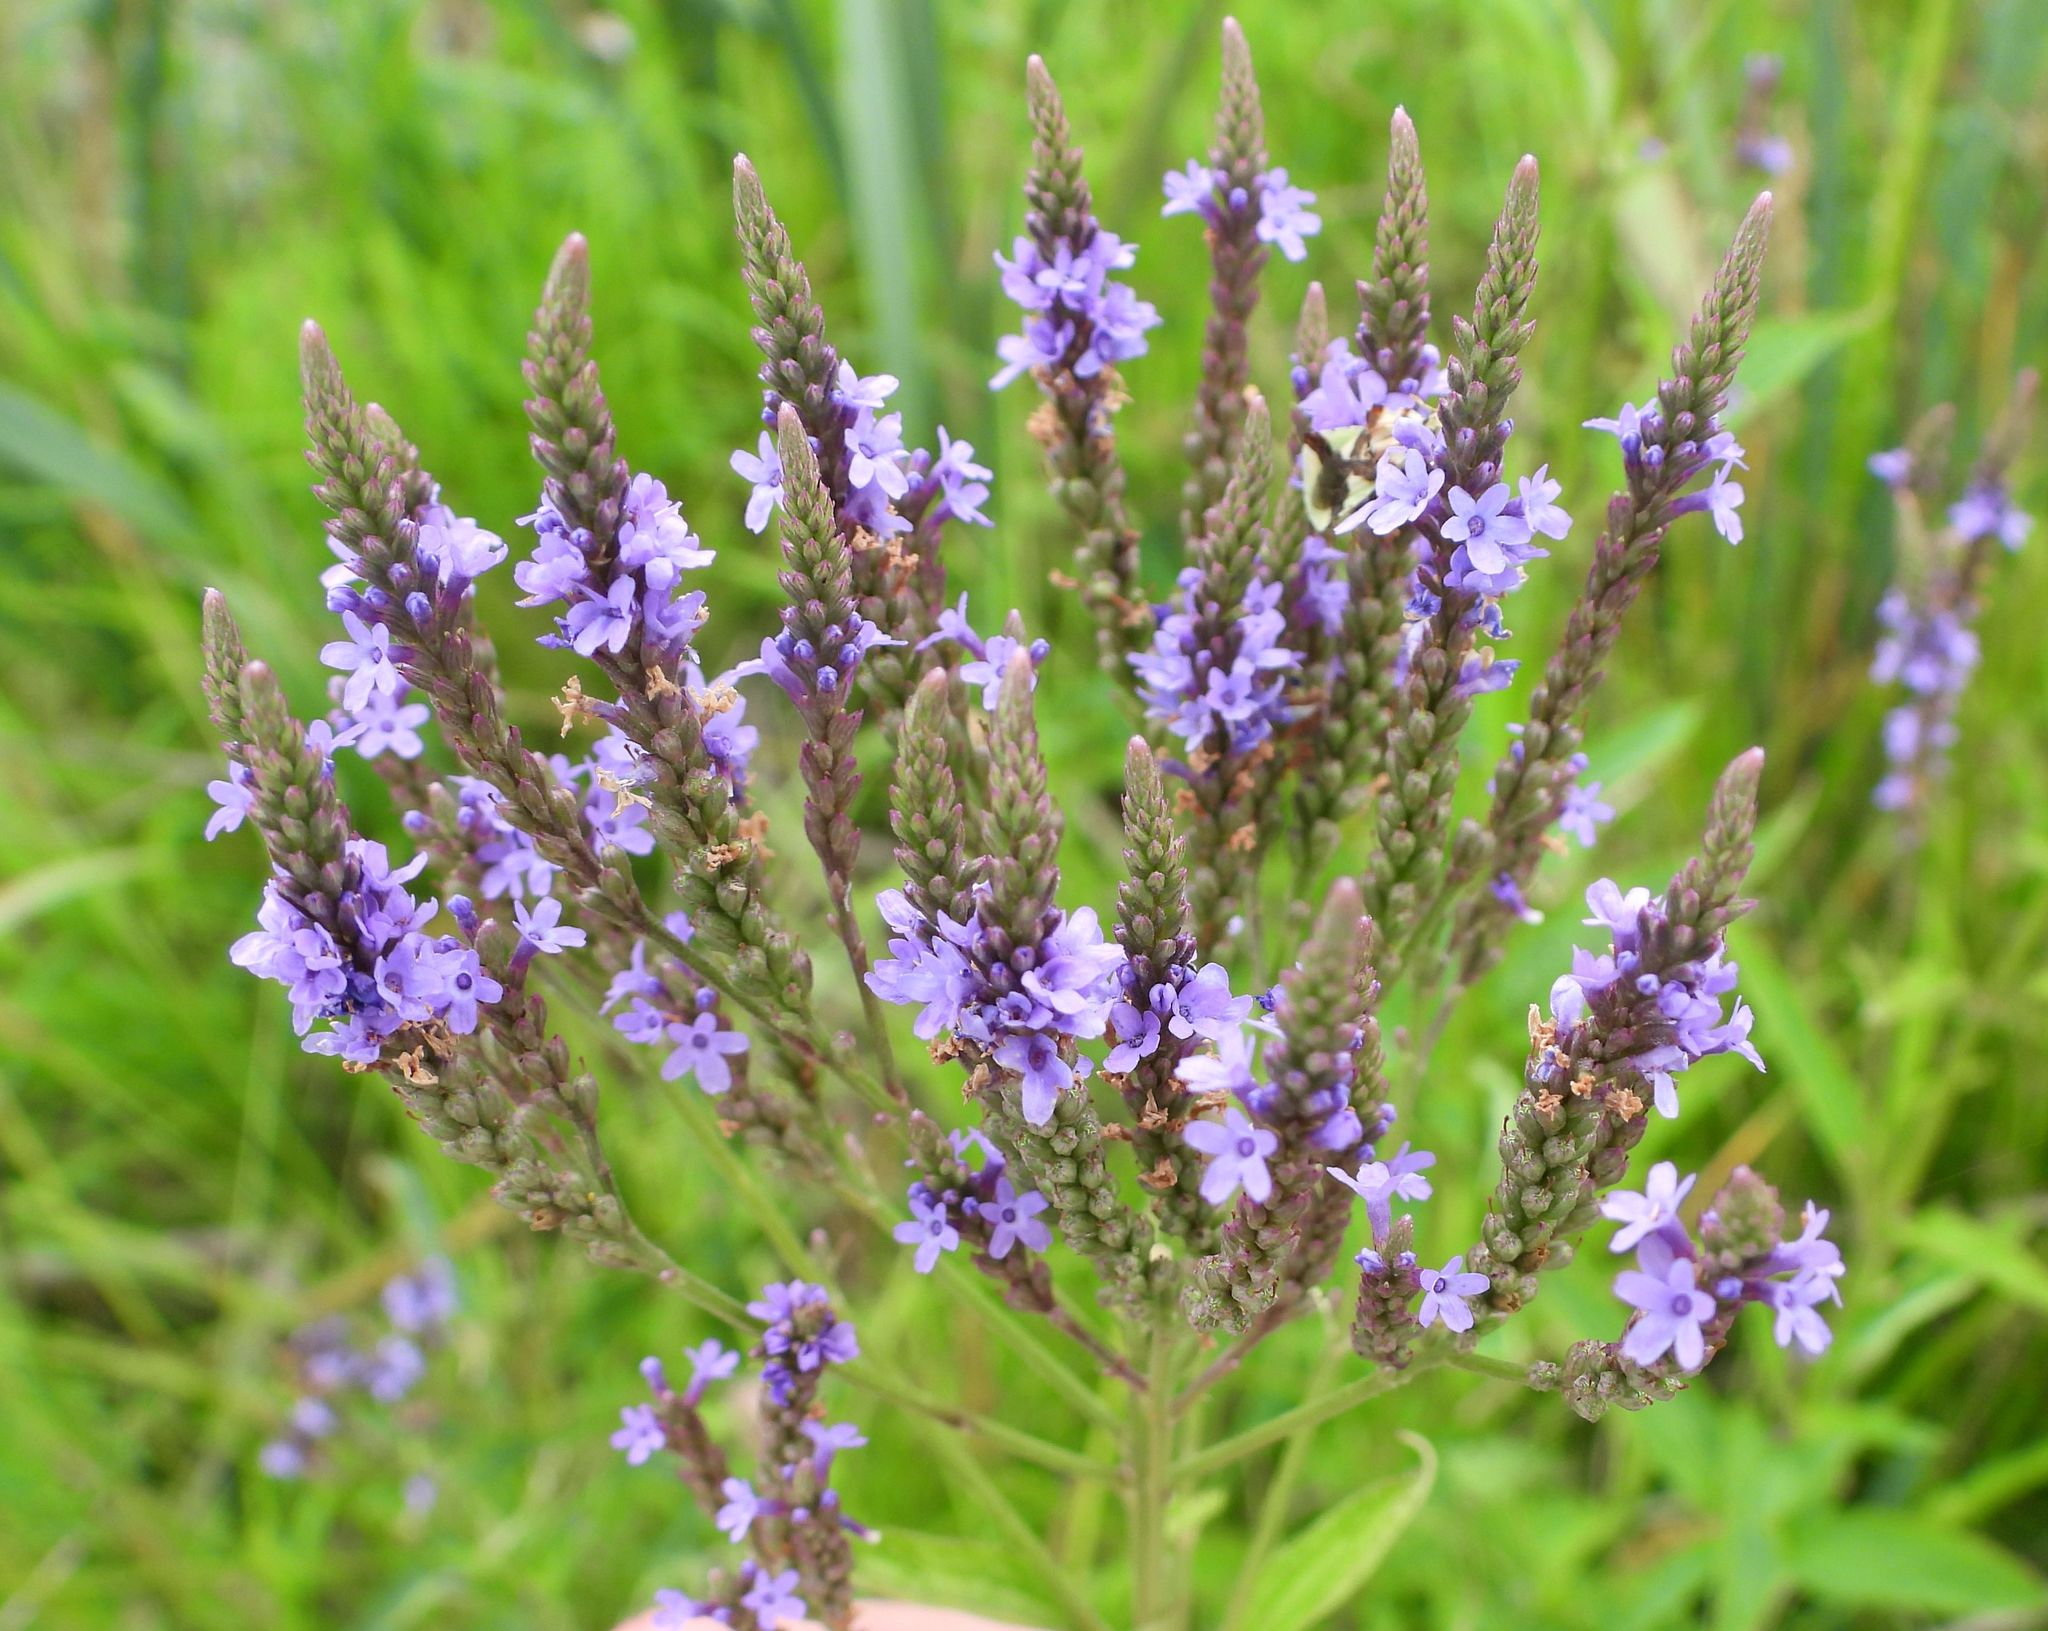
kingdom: Plantae
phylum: Tracheophyta
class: Magnoliopsida
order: Lamiales
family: Verbenaceae
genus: Verbena
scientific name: Verbena hastata
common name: American blue vervain
